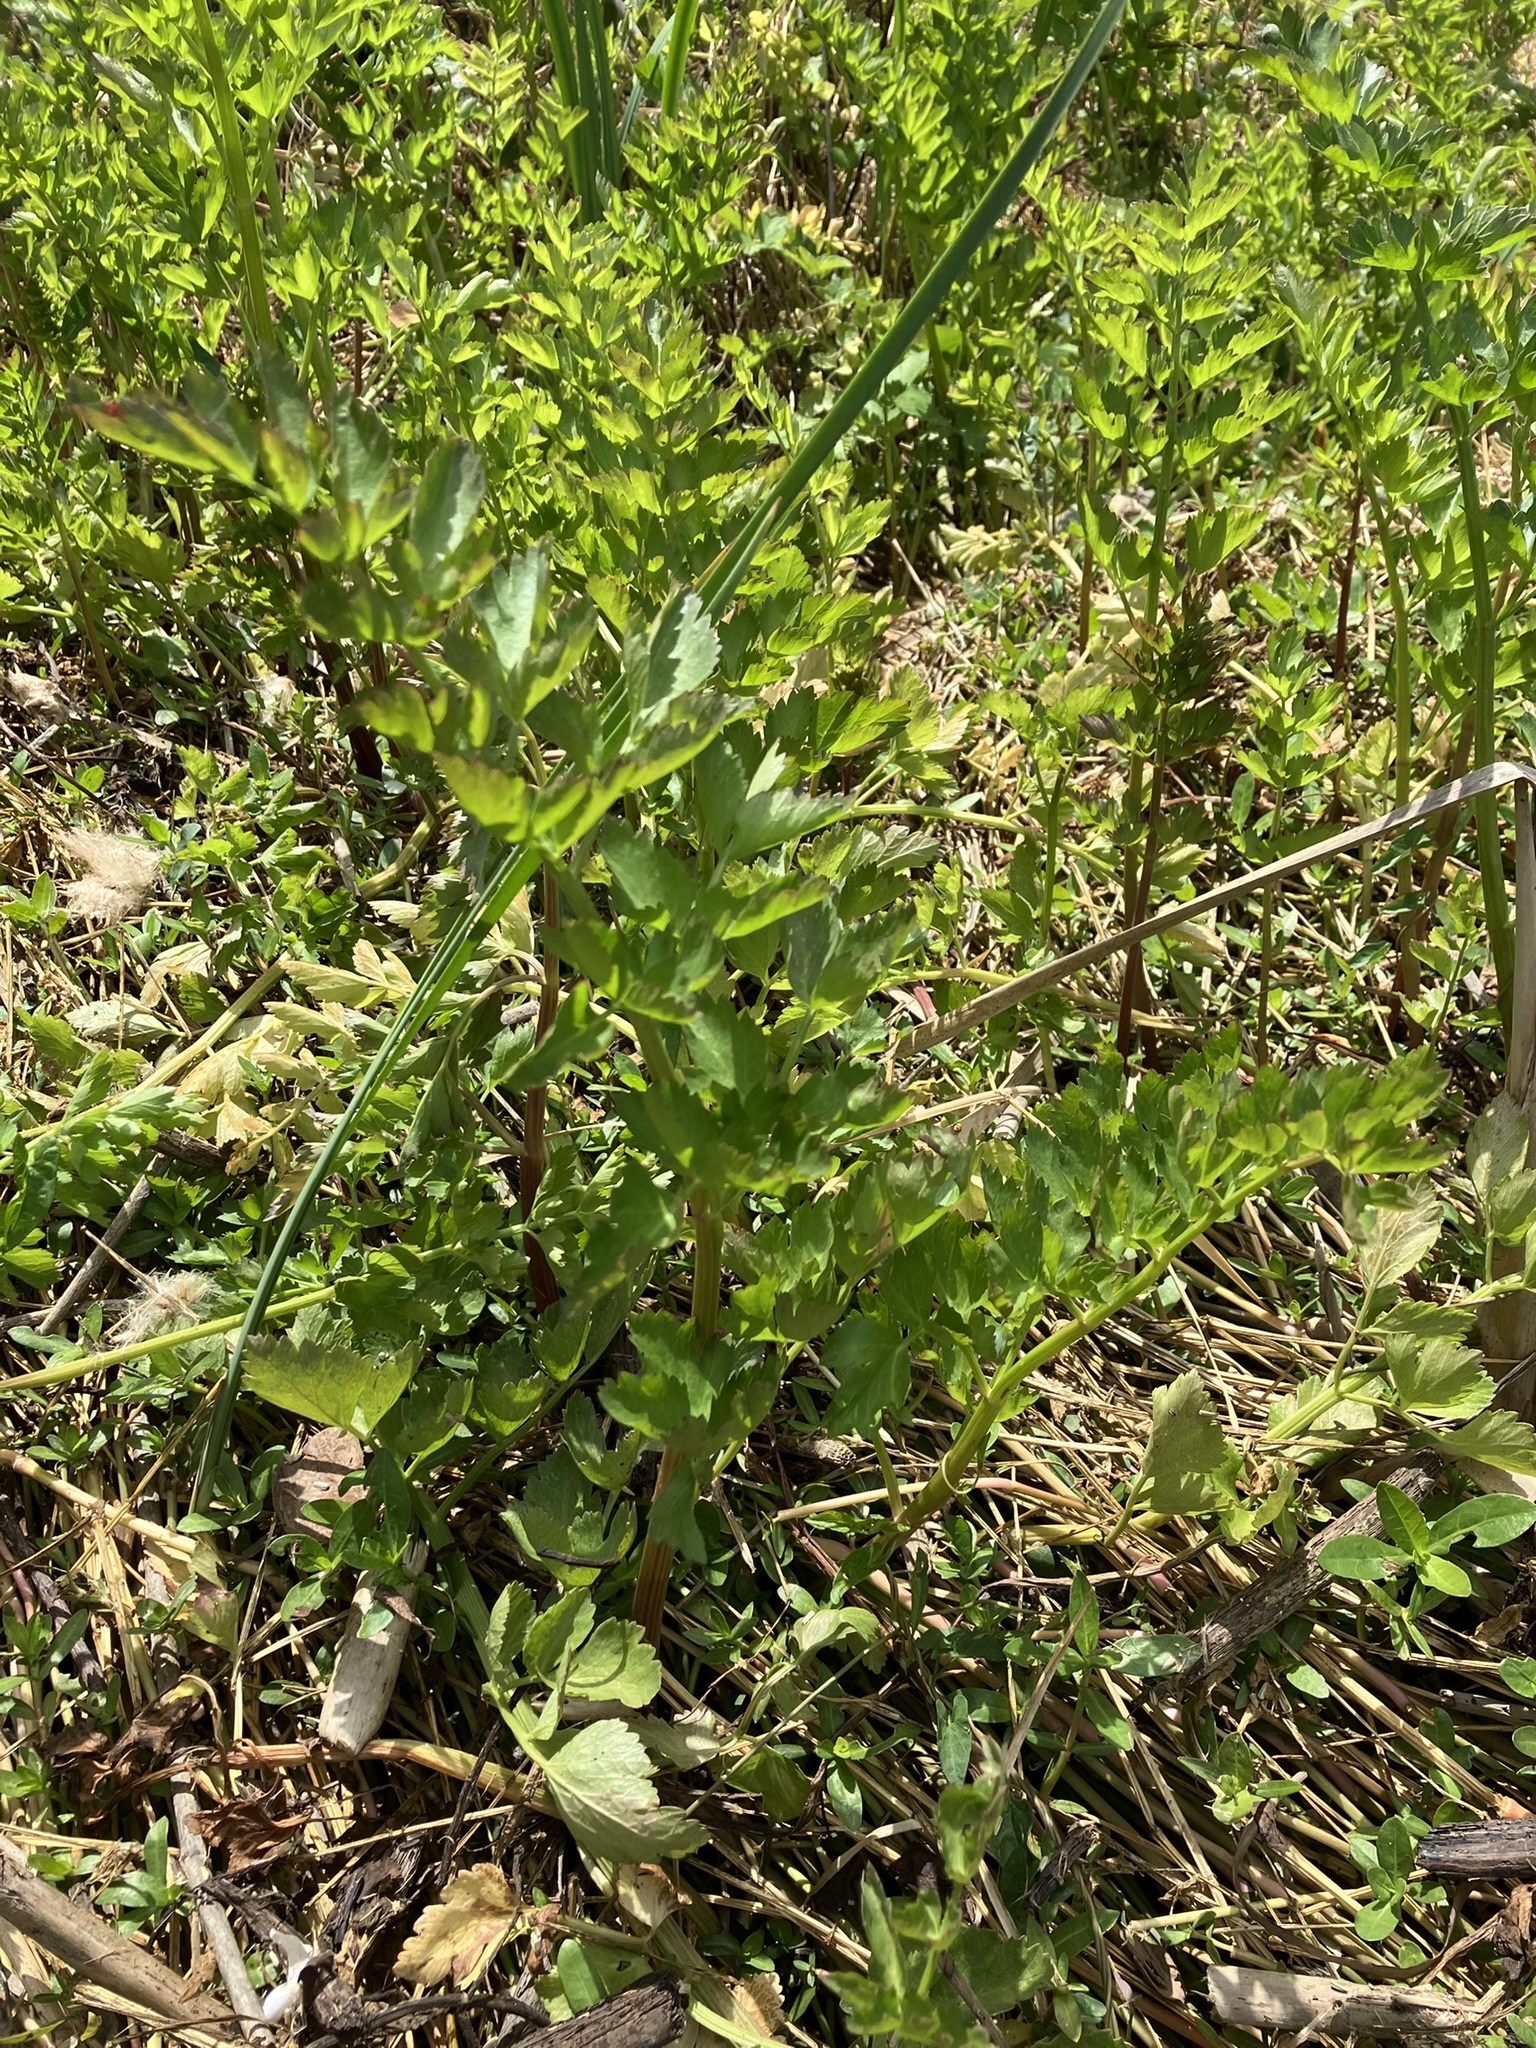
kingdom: Plantae
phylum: Tracheophyta
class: Magnoliopsida
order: Apiales
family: Apiaceae
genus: Oenanthe
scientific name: Oenanthe sarmentosa
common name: American water-parsley
